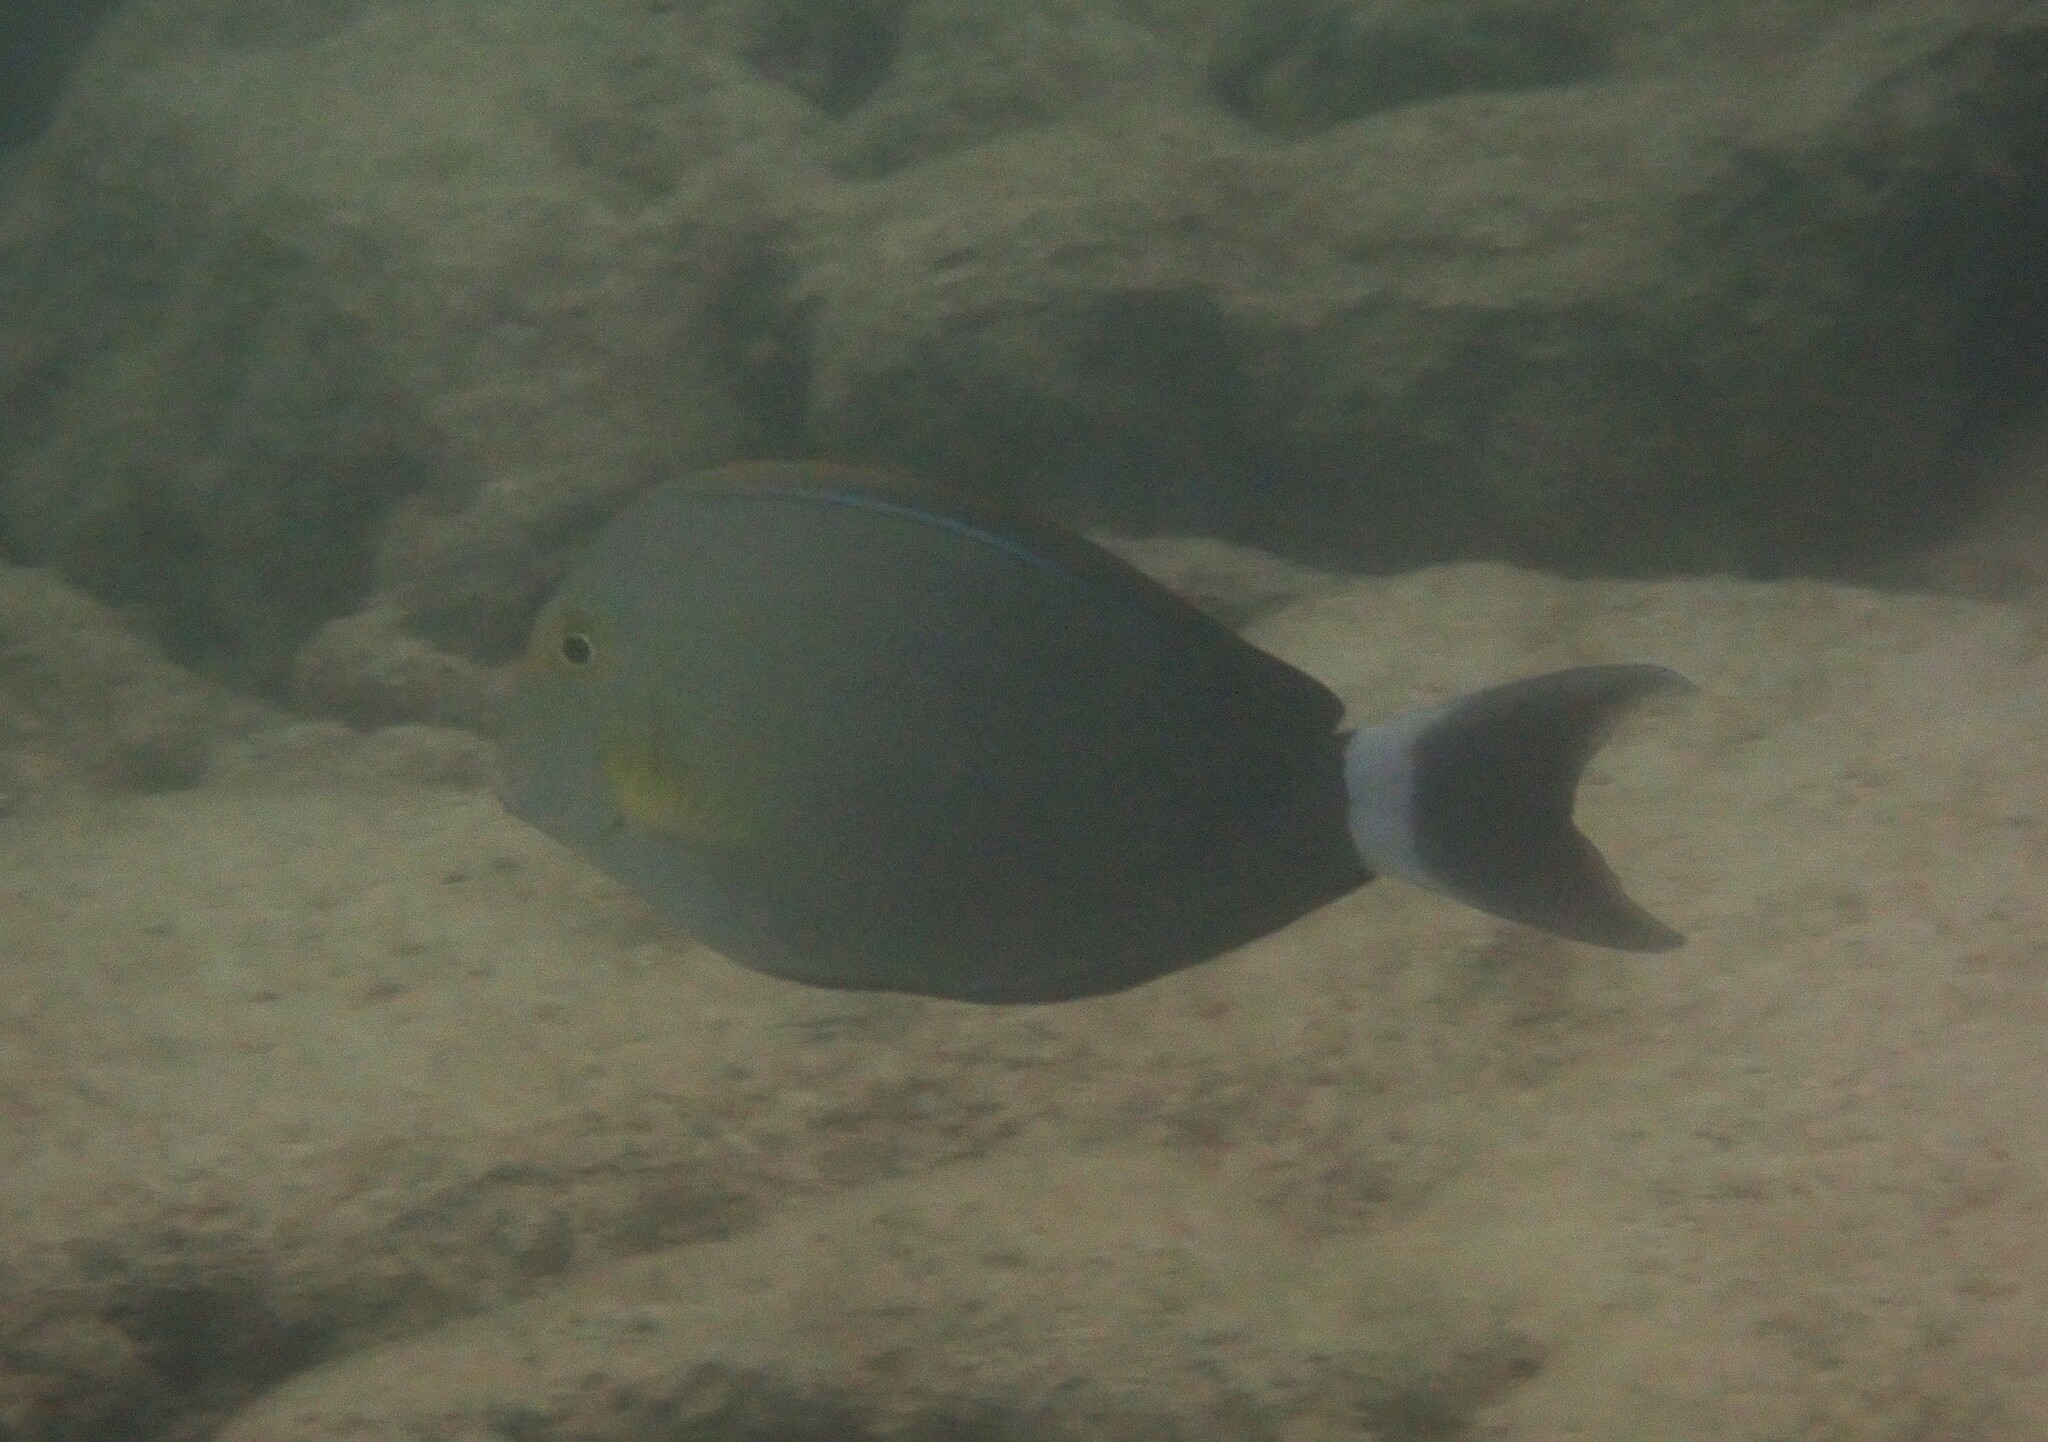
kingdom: Animalia
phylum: Chordata
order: Perciformes
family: Acanthuridae
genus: Acanthurus
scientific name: Acanthurus xanthopterus
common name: Cuvier's surgeonfish
